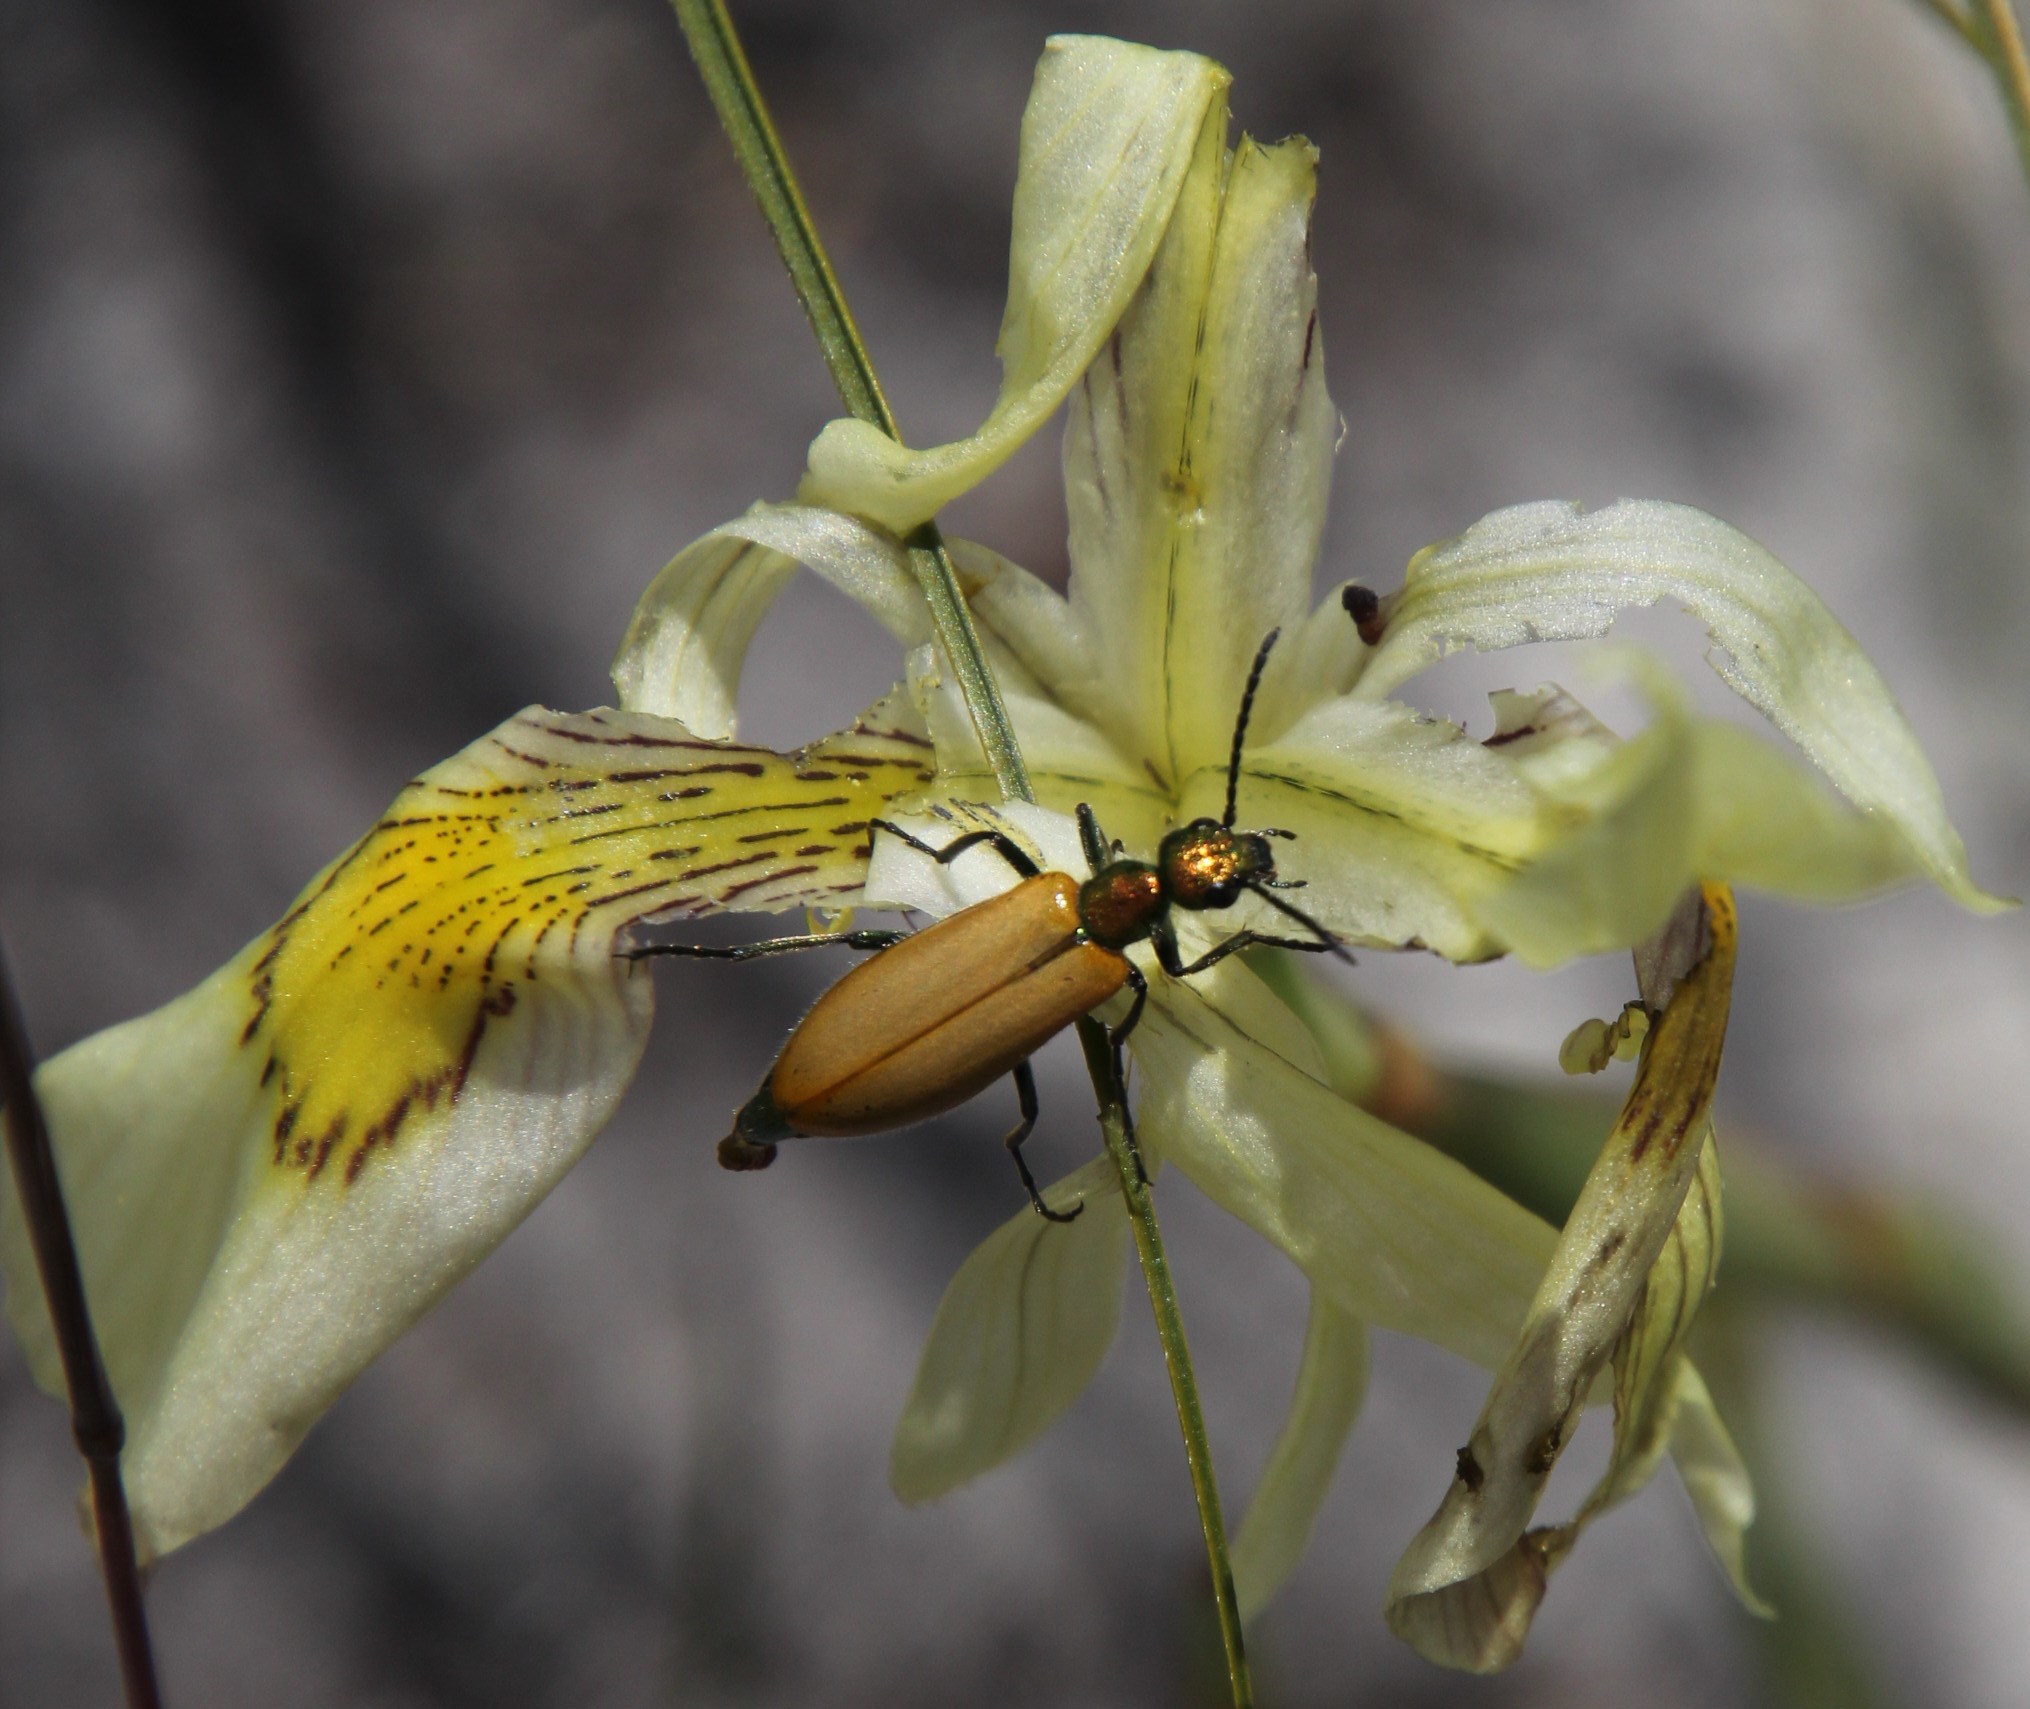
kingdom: Animalia
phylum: Arthropoda
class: Insecta
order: Coleoptera
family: Meloidae
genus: Prolytta
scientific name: Prolytta
